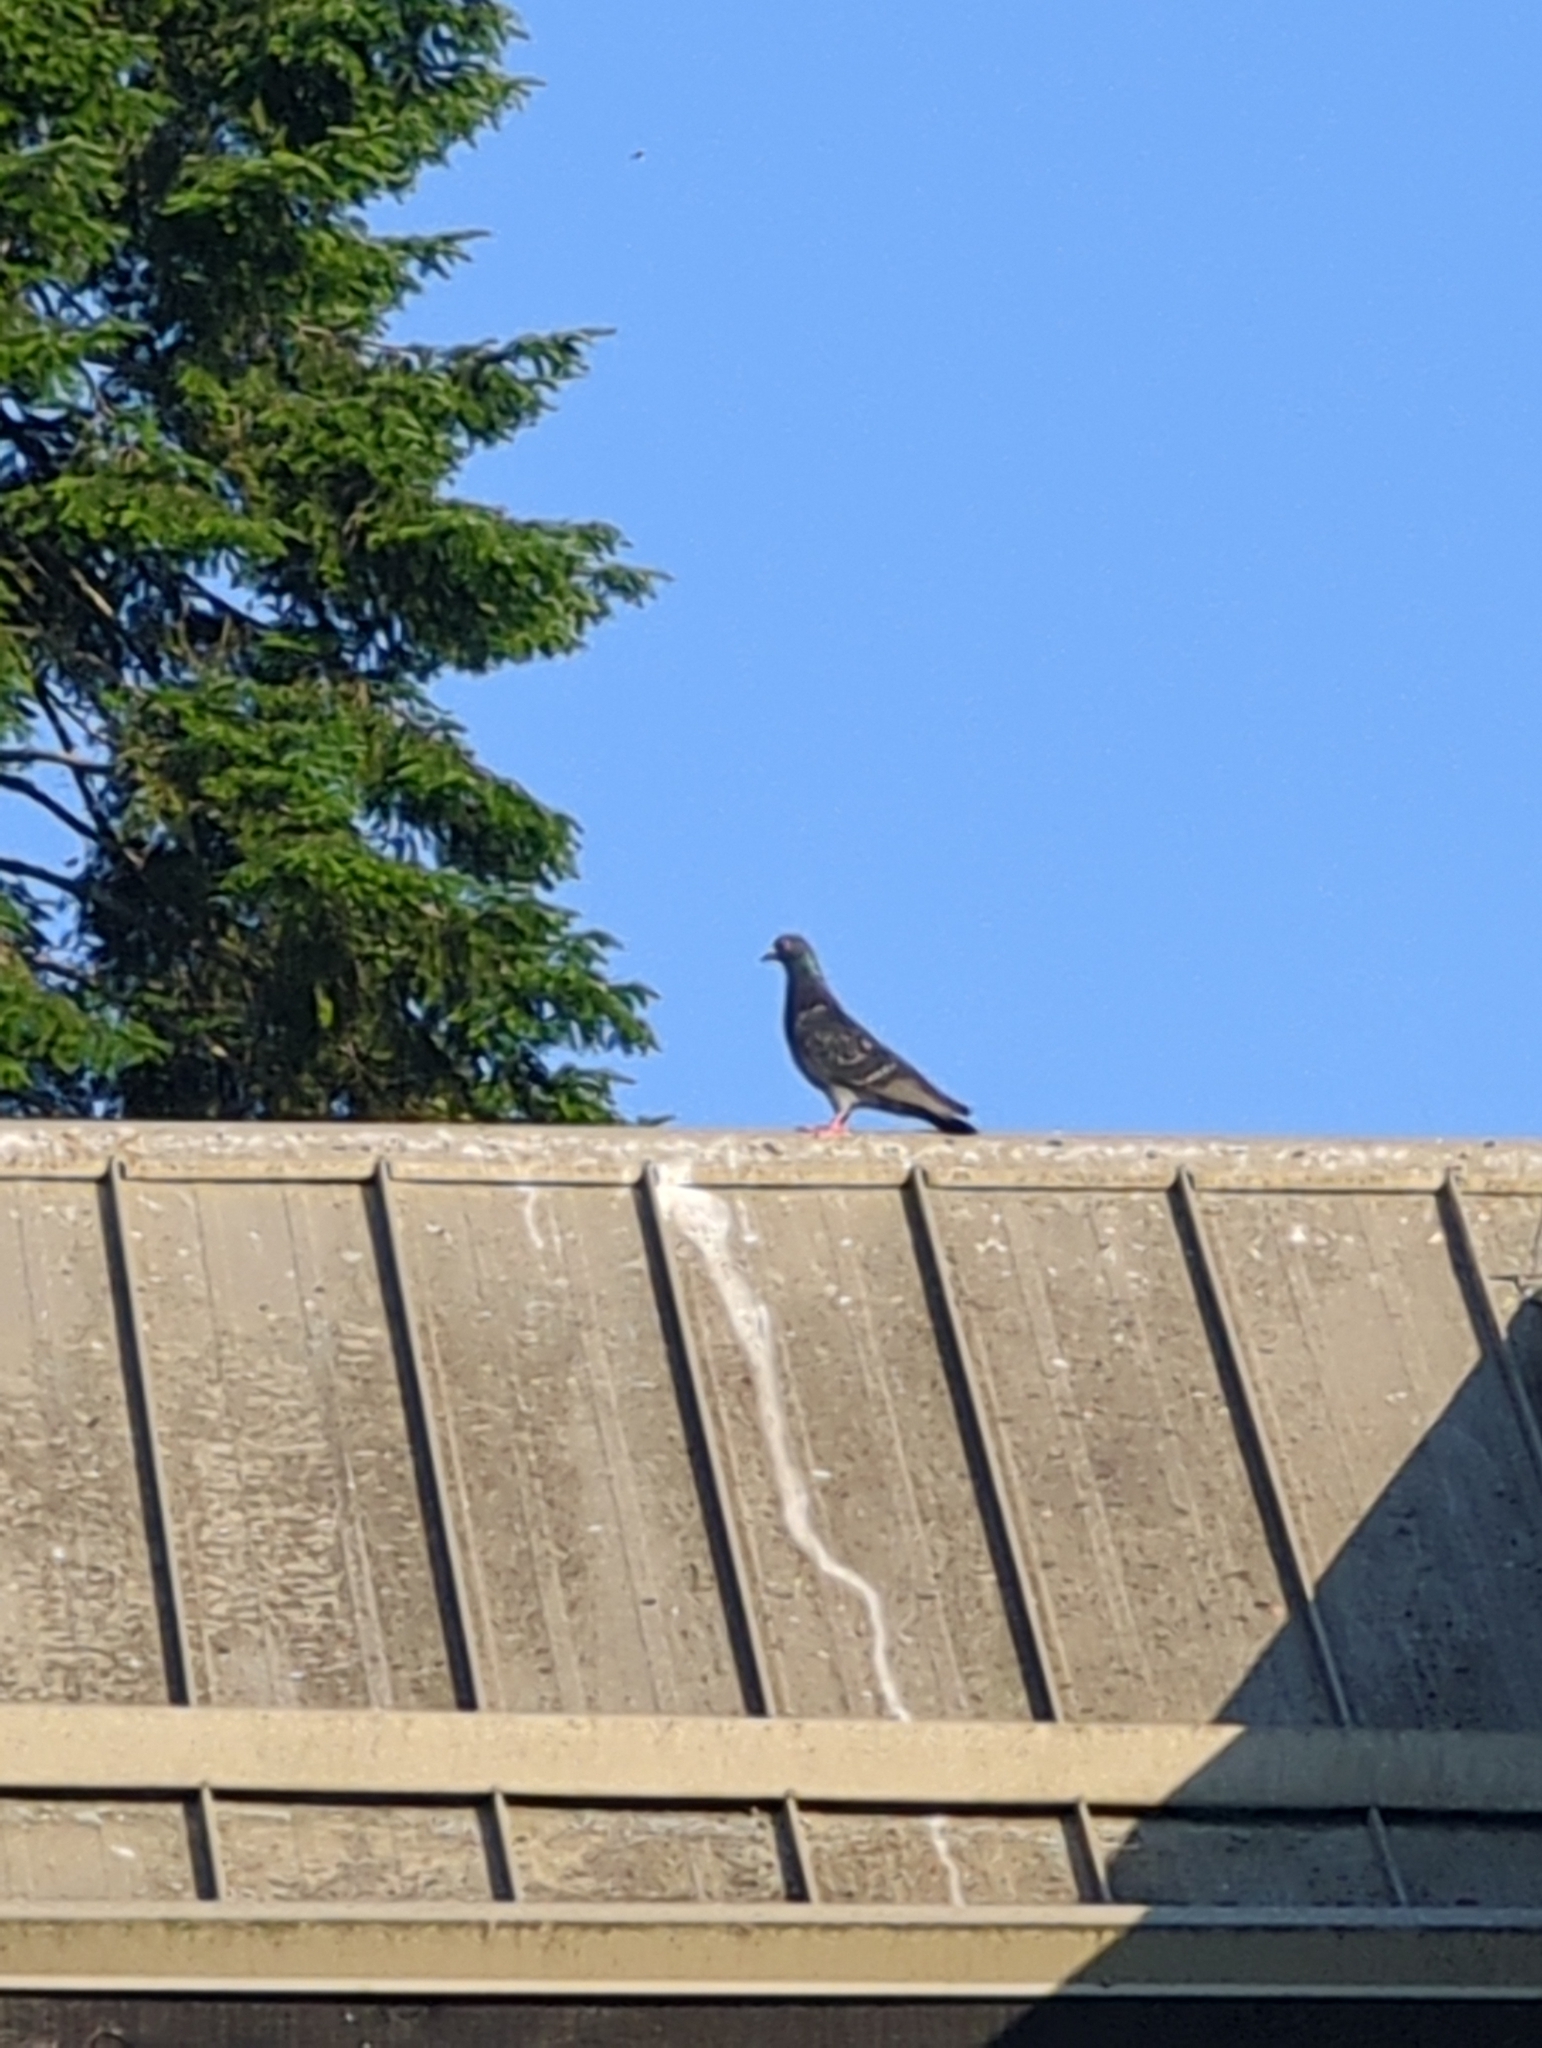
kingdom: Animalia
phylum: Chordata
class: Aves
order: Columbiformes
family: Columbidae
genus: Columba
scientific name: Columba livia
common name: Rock pigeon
